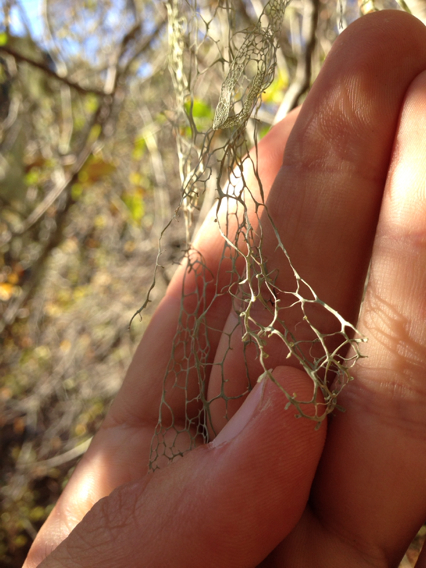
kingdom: Fungi
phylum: Ascomycota
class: Lecanoromycetes
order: Lecanorales
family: Ramalinaceae
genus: Ramalina
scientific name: Ramalina menziesii
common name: Lace lichen
